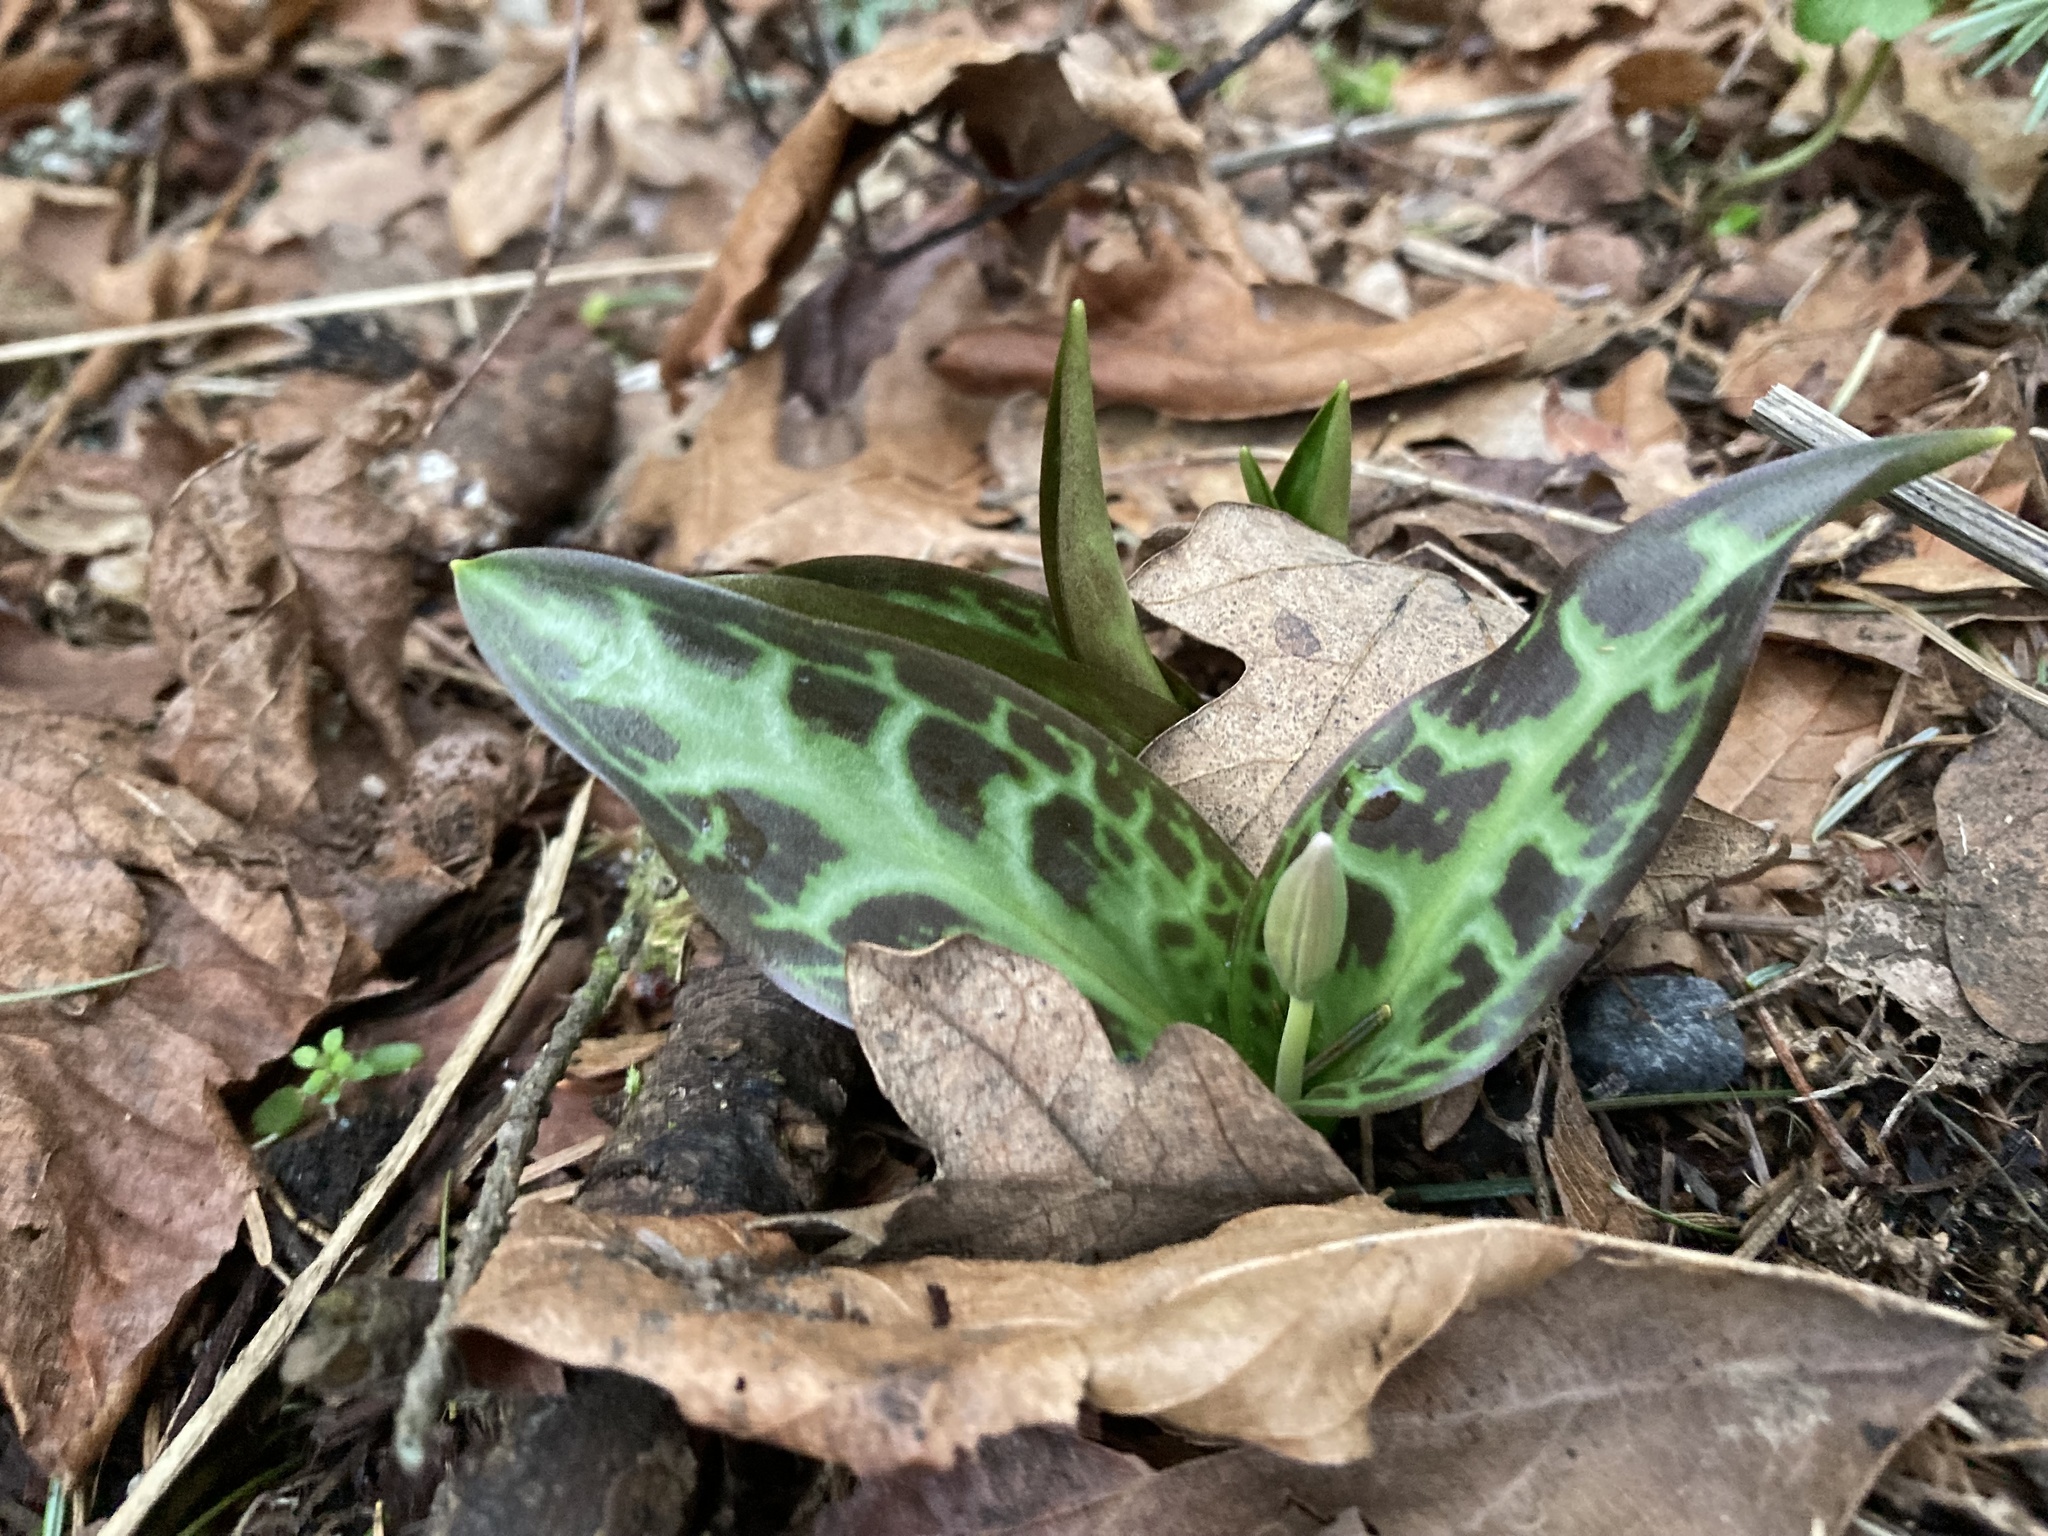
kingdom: Plantae
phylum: Tracheophyta
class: Liliopsida
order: Liliales
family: Liliaceae
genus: Erythronium
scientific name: Erythronium oregonum
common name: Giant adder's-tongue
